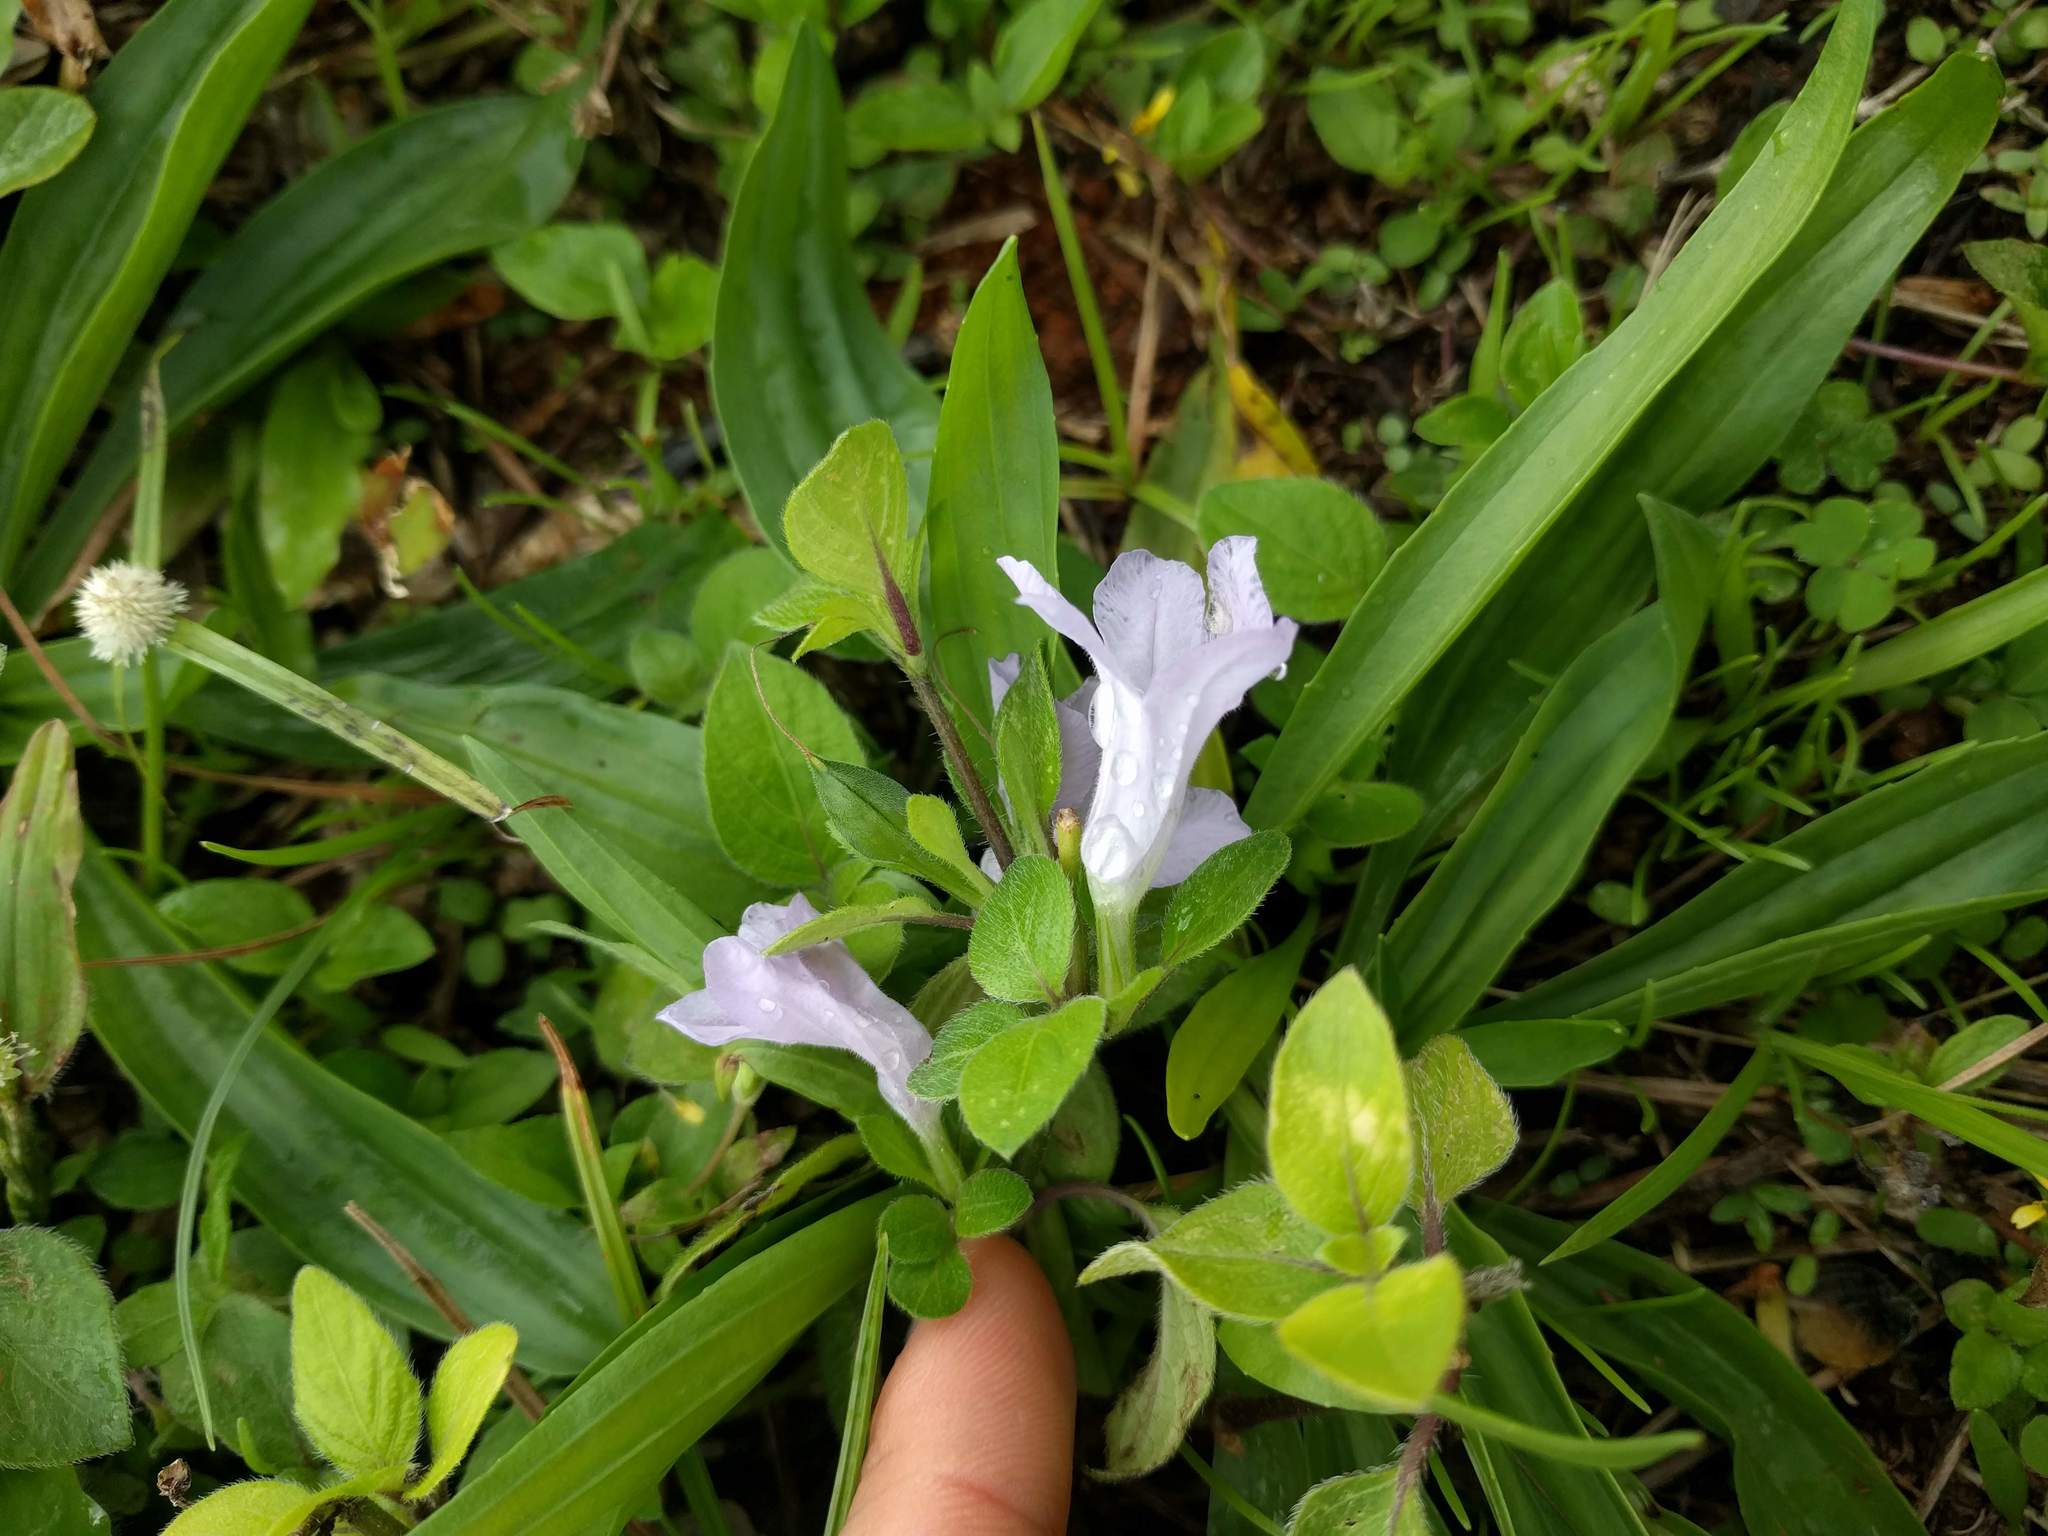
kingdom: Plantae
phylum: Tracheophyta
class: Magnoliopsida
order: Lamiales
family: Acanthaceae
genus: Ruellia
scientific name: Ruellia prostrata
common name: Prostrate wild petunia
